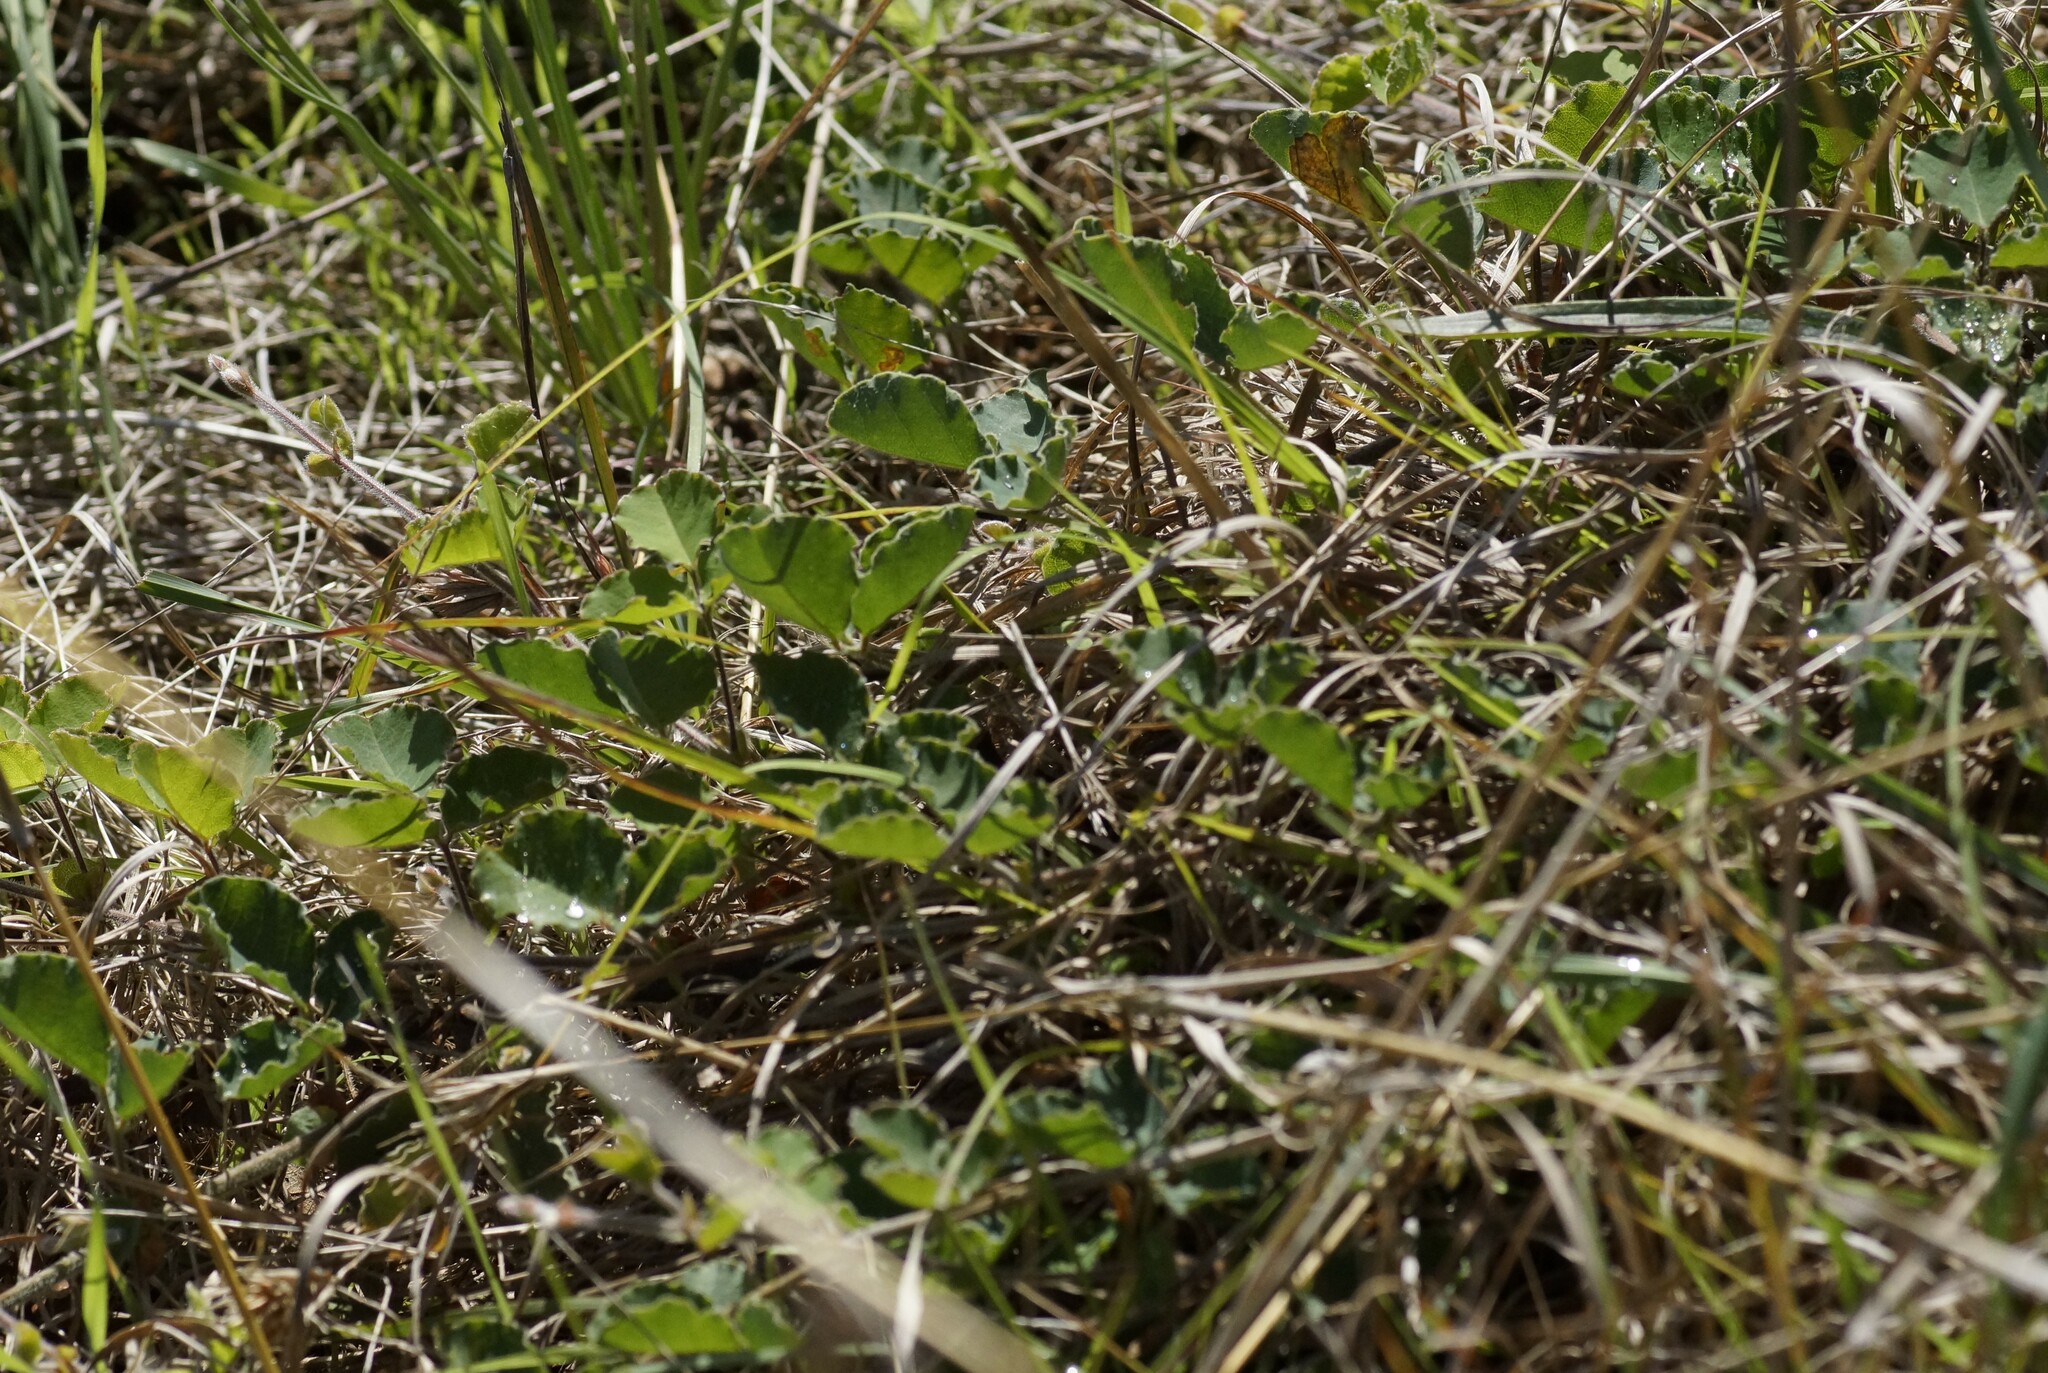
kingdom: Plantae
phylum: Tracheophyta
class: Magnoliopsida
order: Fabales
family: Fabaceae
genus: Kennedia
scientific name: Kennedia prostrata
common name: Running-postman
